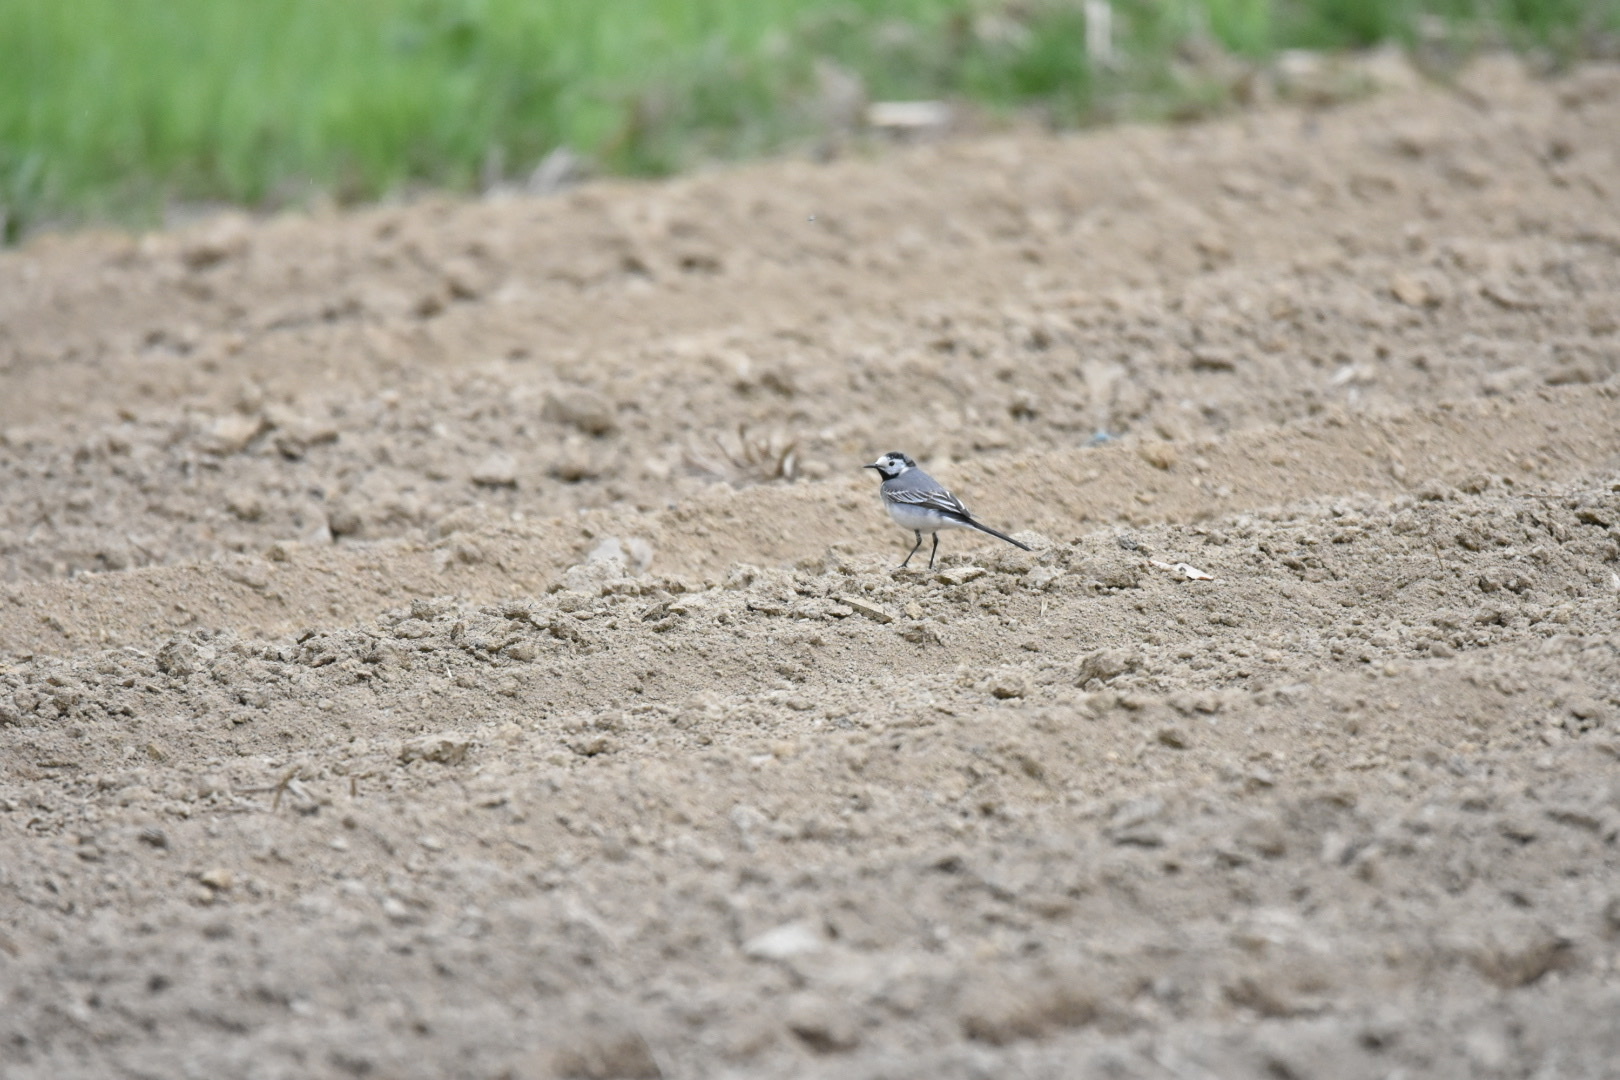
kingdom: Animalia
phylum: Chordata
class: Aves
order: Passeriformes
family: Motacillidae
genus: Motacilla
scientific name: Motacilla alba
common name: White wagtail
